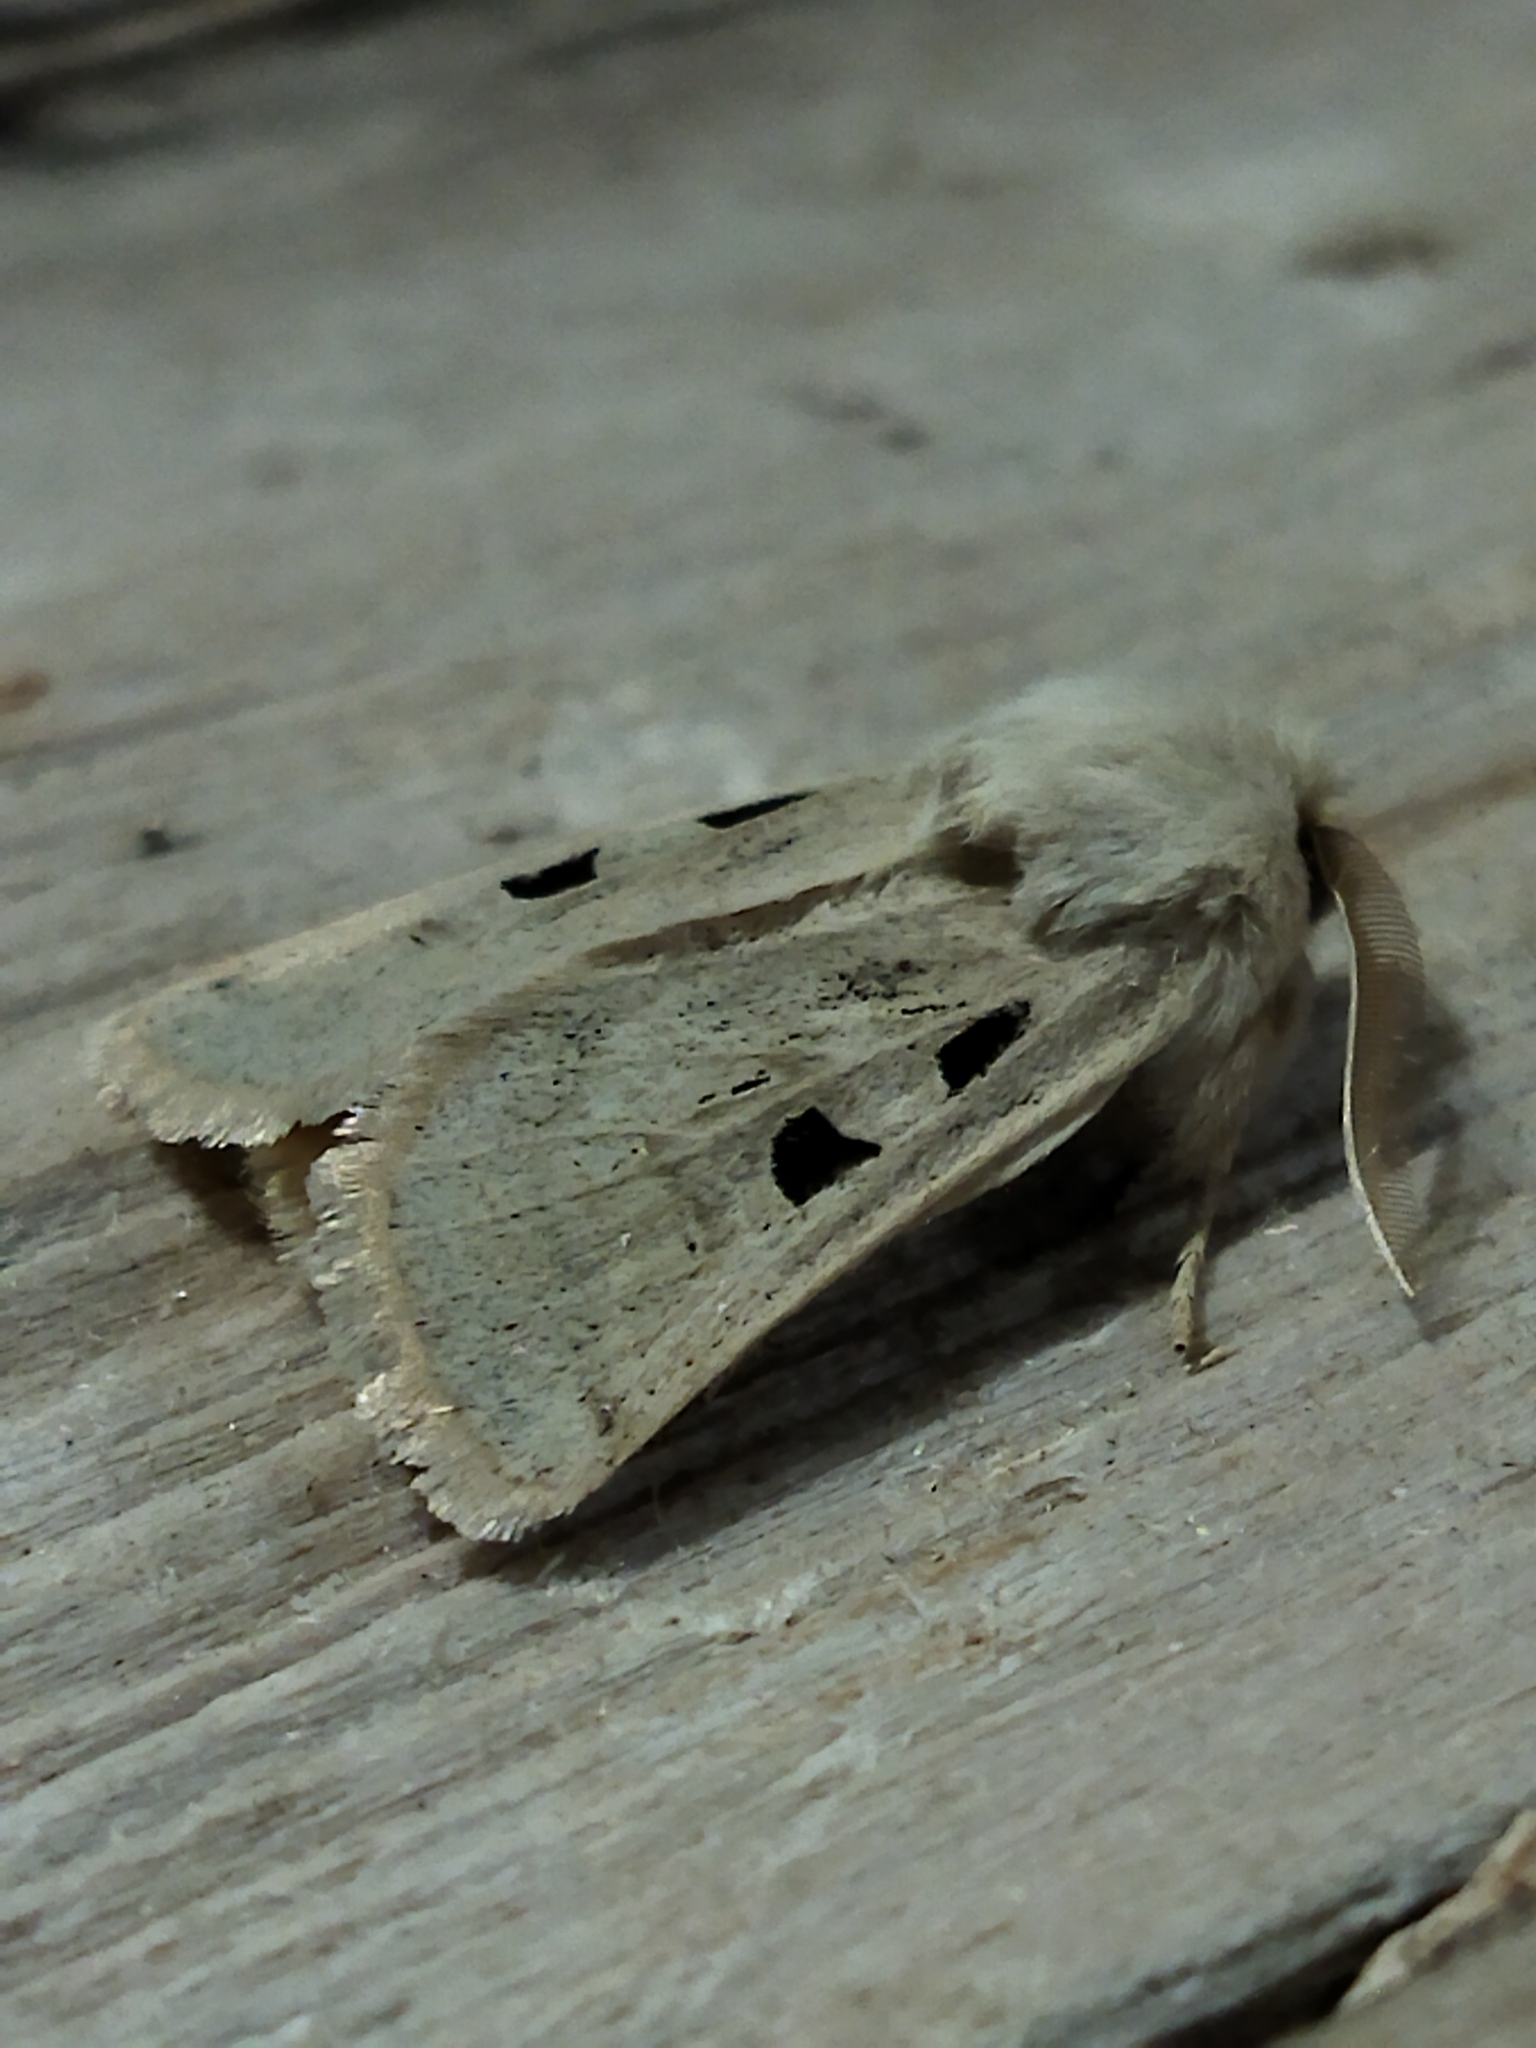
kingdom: Animalia
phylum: Arthropoda
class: Insecta
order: Lepidoptera
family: Noctuidae
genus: Episema
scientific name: Episema tersa
